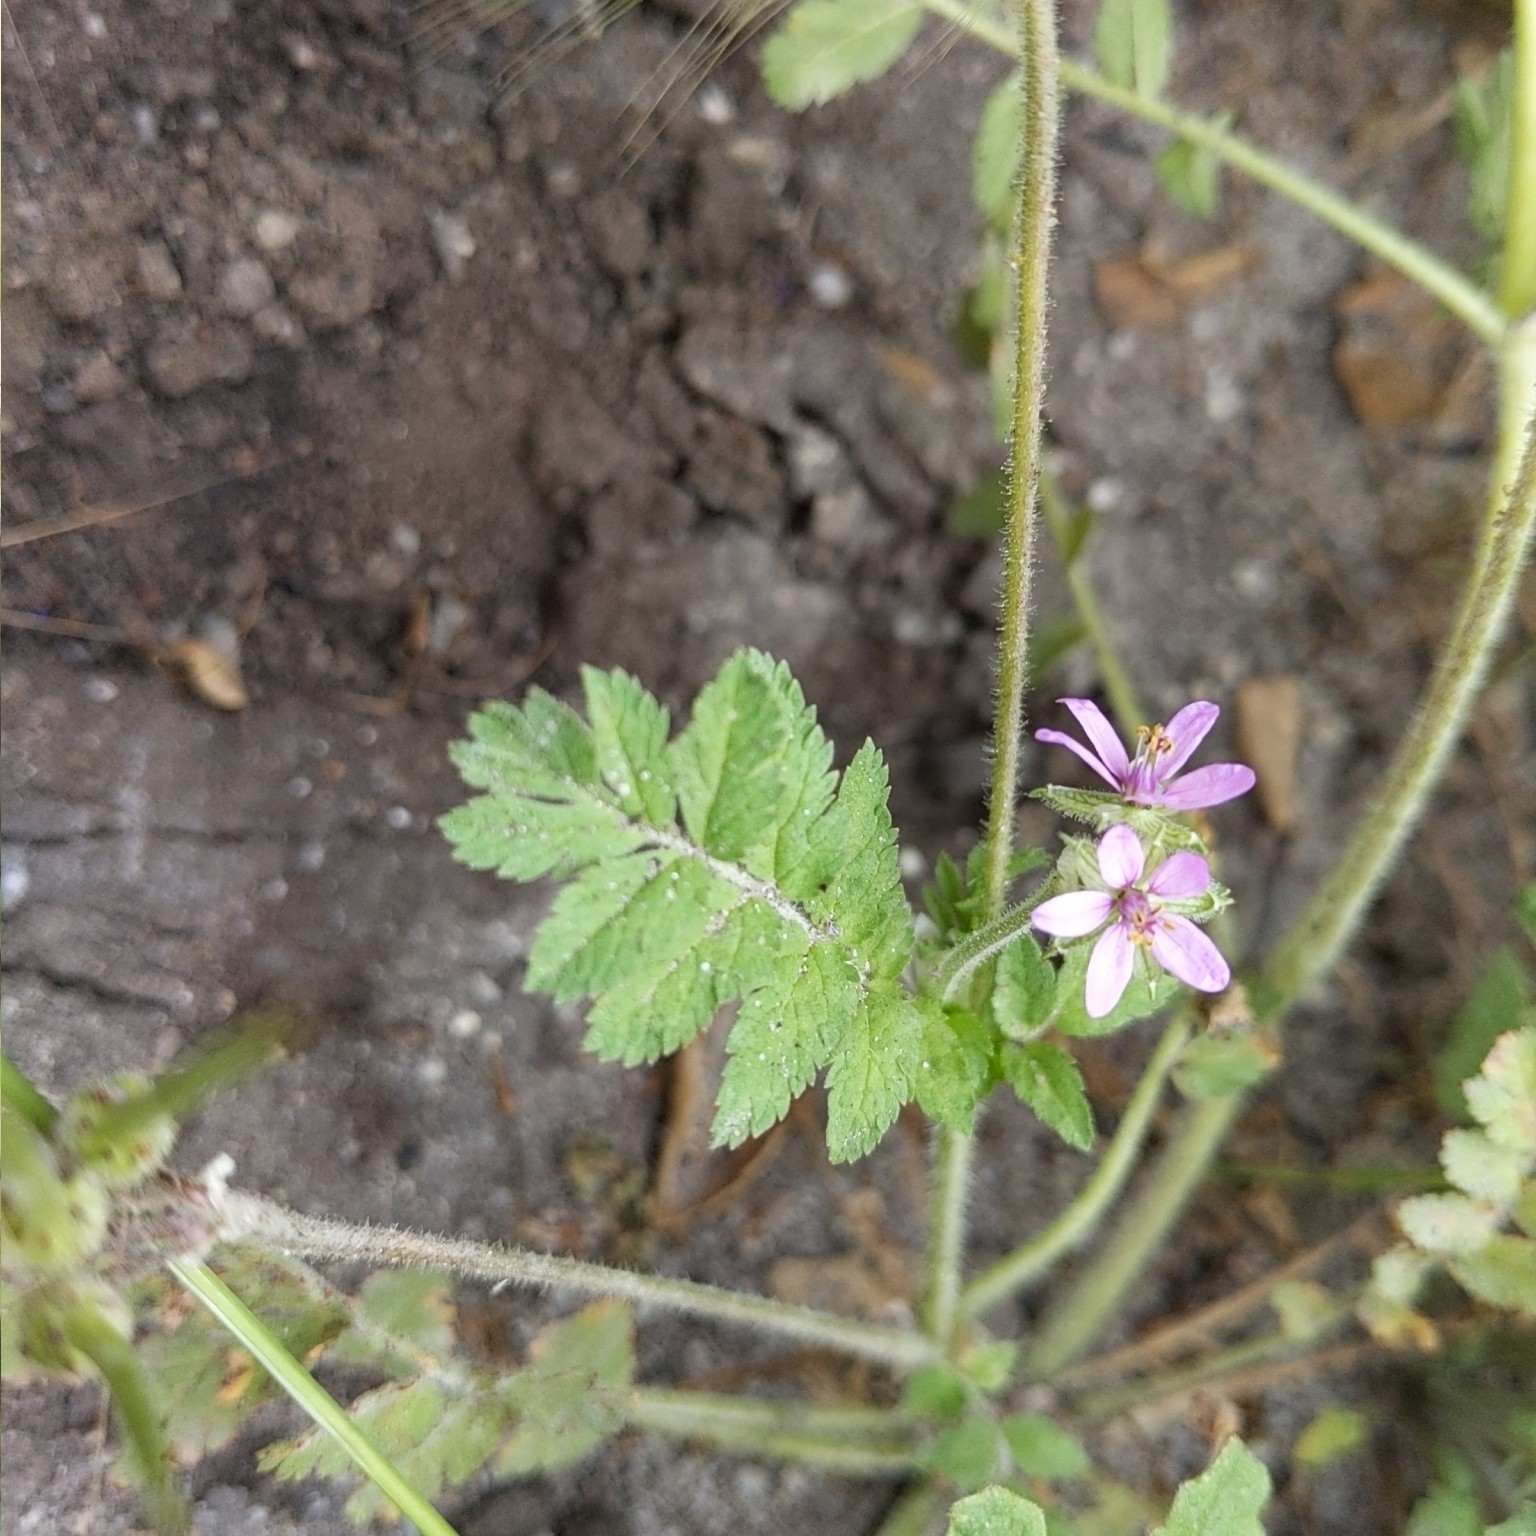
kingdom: Plantae
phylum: Tracheophyta
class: Magnoliopsida
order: Geraniales
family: Geraniaceae
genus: Erodium
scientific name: Erodium moschatum
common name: Musk stork's-bill
